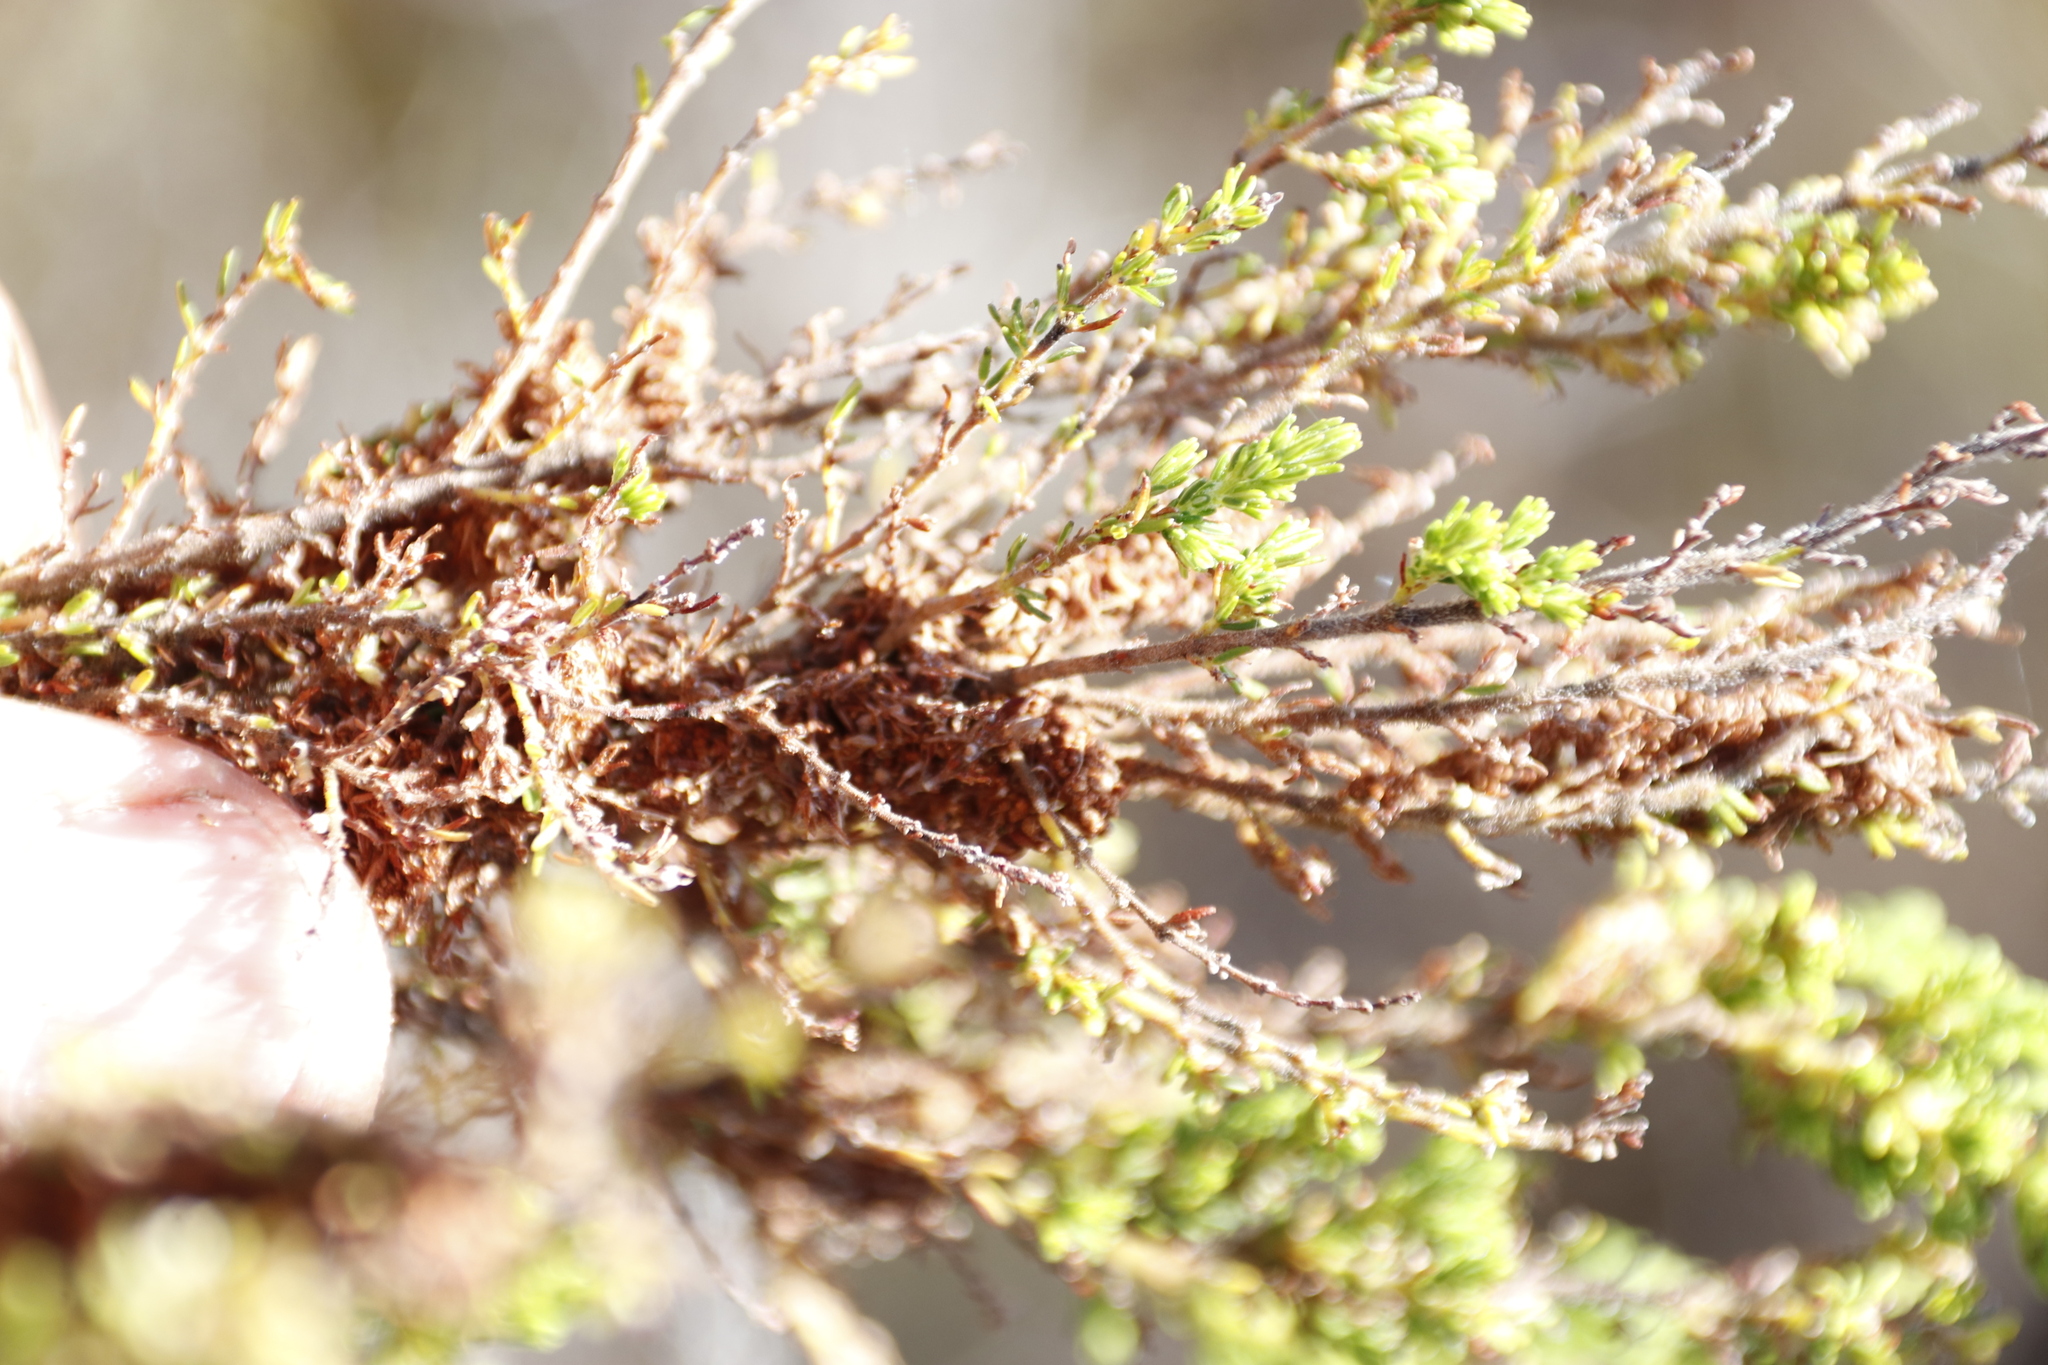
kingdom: Animalia
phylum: Arthropoda
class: Insecta
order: Lepidoptera
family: Pyralidae
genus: Triphassa
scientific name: Triphassa stalachtis
